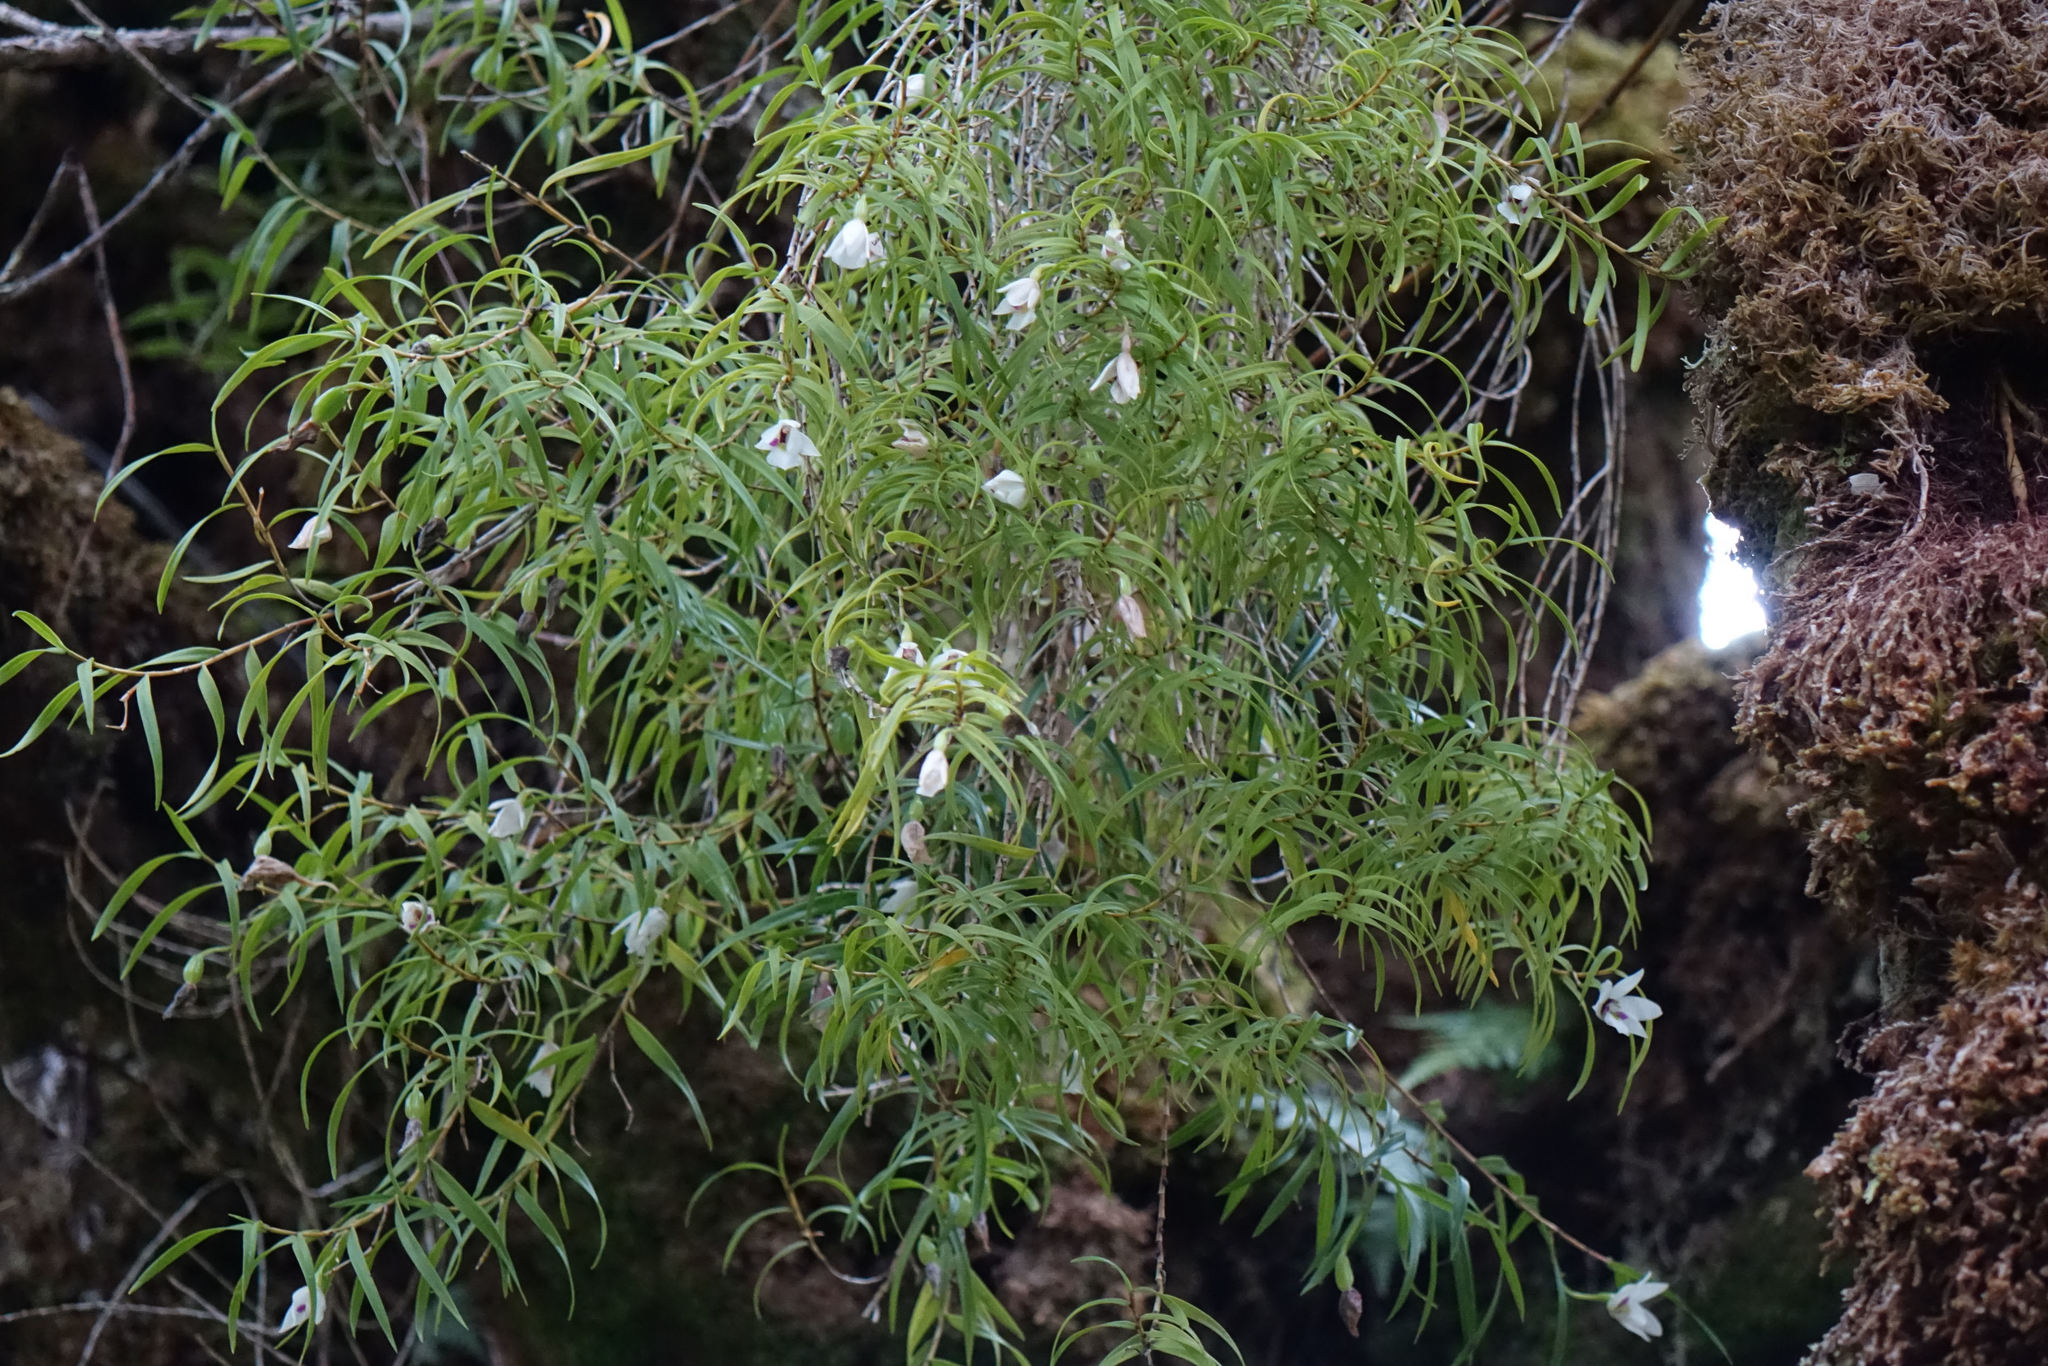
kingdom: Plantae
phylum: Tracheophyta
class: Liliopsida
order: Asparagales
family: Orchidaceae
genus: Dendrobium
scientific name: Dendrobium cunninghamii
